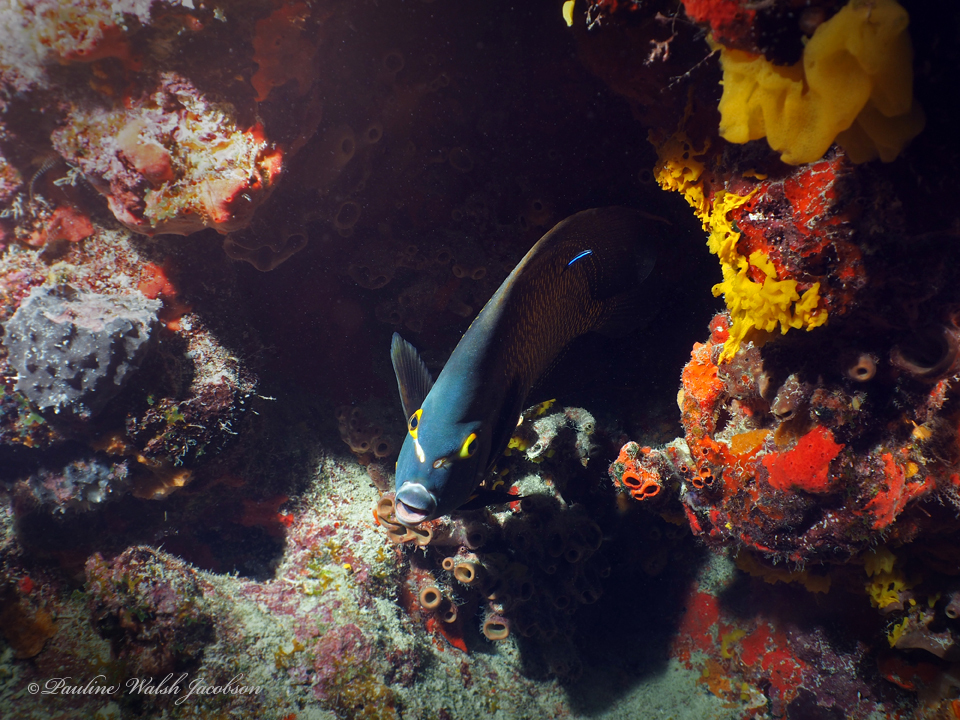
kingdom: Animalia
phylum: Chordata
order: Perciformes
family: Pomacanthidae
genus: Pomacanthus
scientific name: Pomacanthus paru
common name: French angelfish
